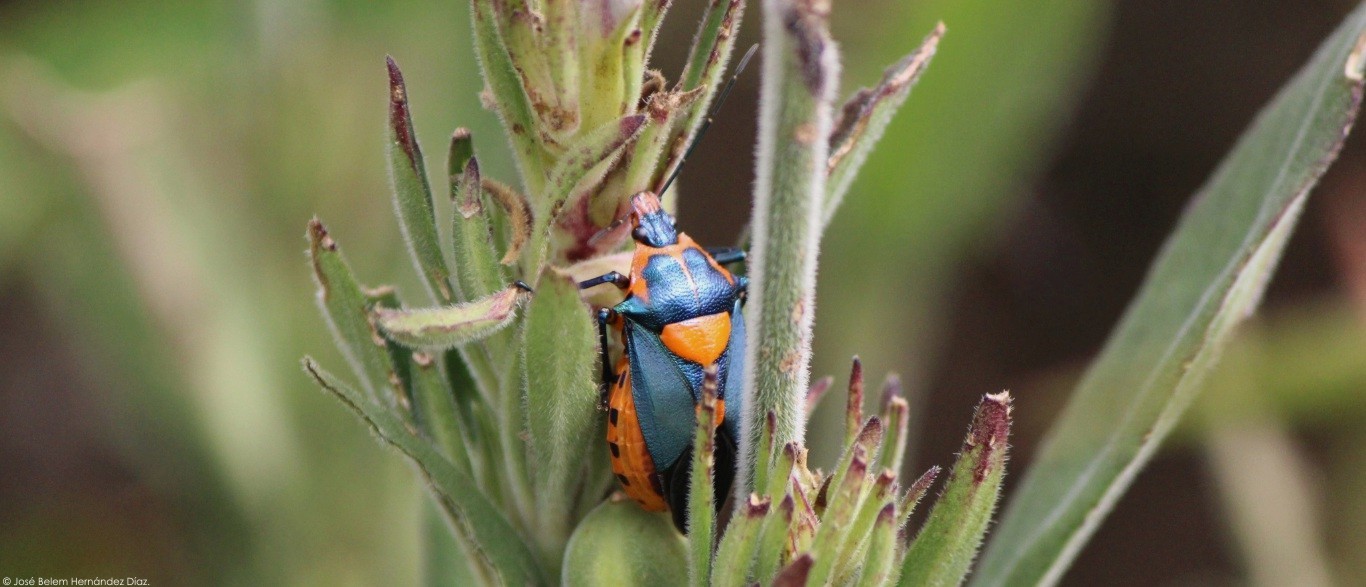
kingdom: Animalia
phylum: Arthropoda
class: Insecta
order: Hemiptera
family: Pentatomidae
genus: Euthyrhynchus
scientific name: Euthyrhynchus floridanus
